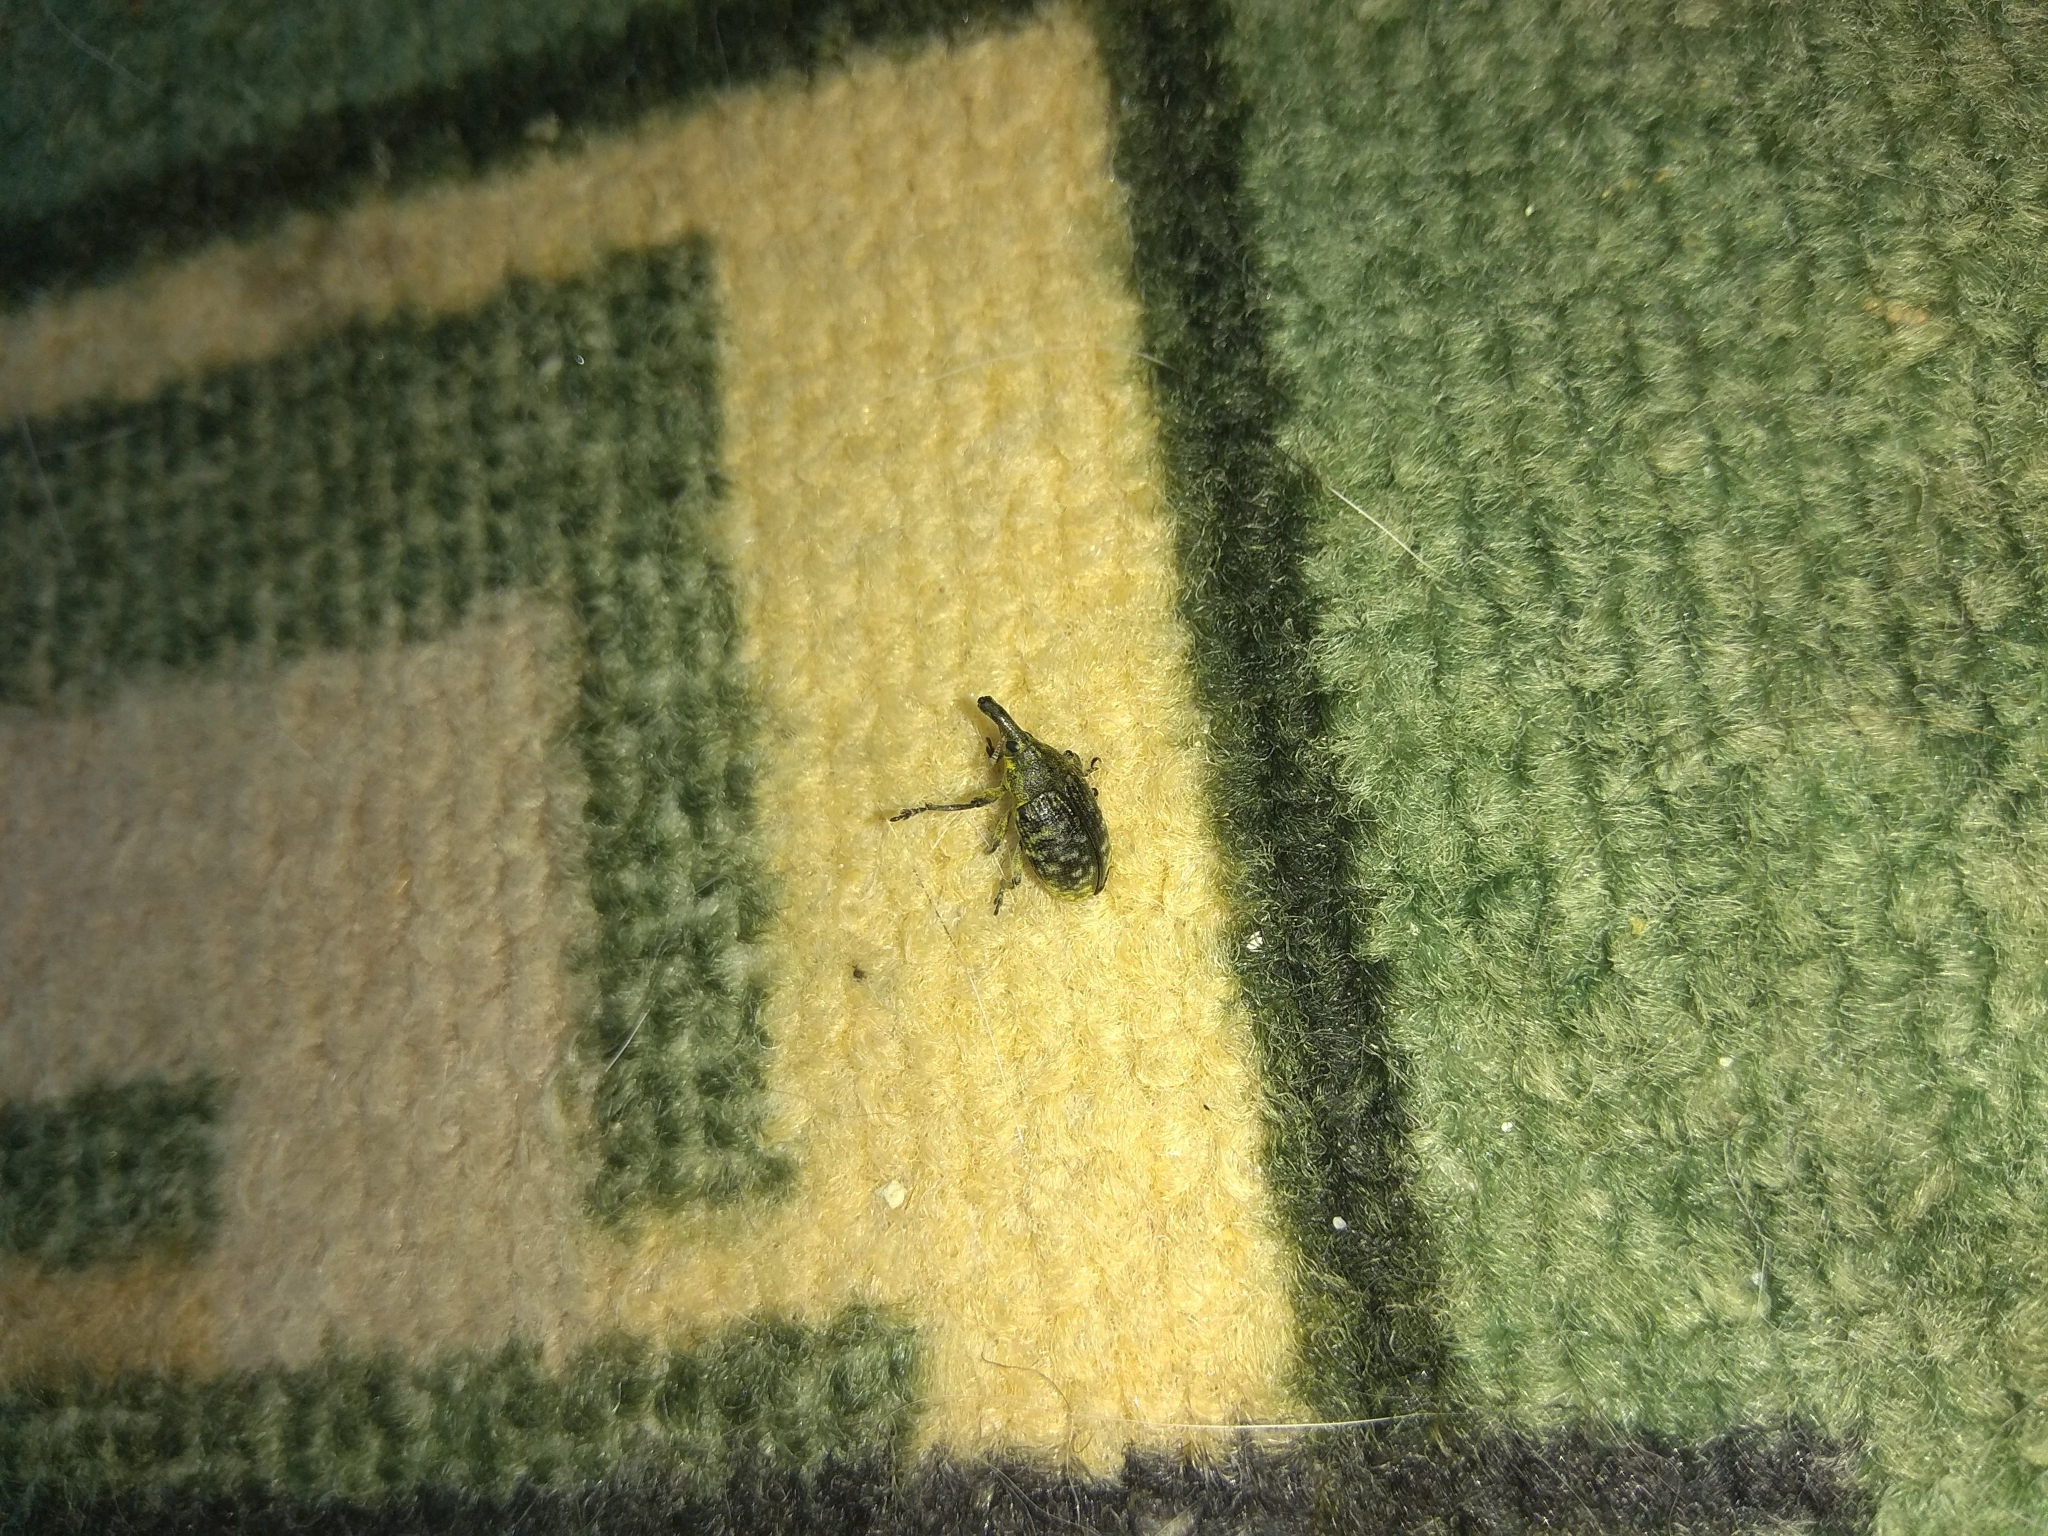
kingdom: Animalia
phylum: Arthropoda
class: Insecta
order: Coleoptera
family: Curculionidae
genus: Larinus
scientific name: Larinus sturnus
